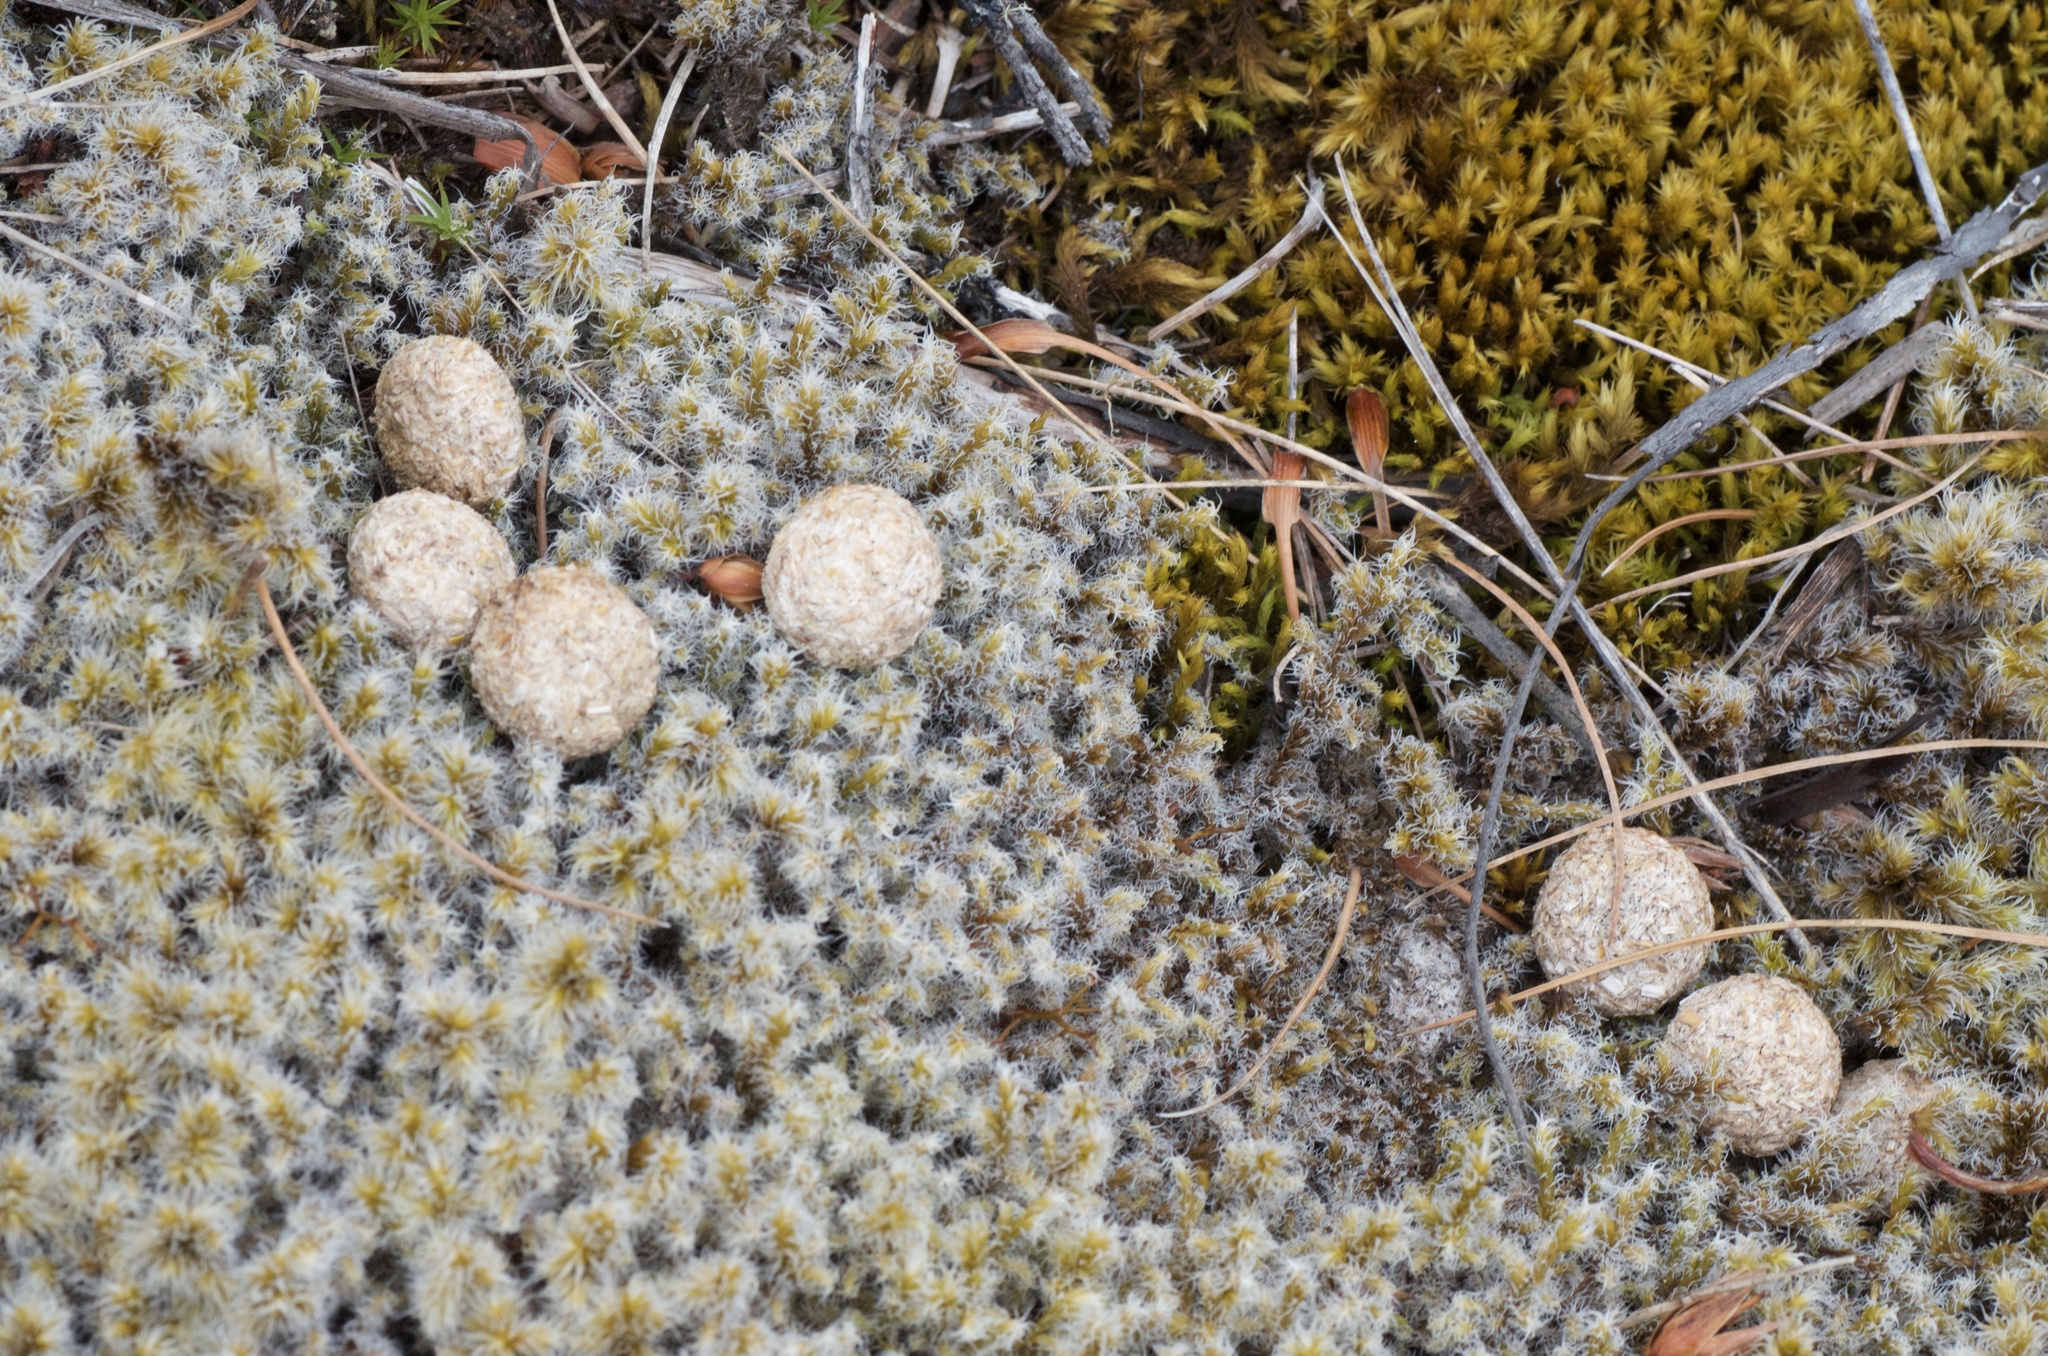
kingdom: Animalia
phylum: Chordata
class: Mammalia
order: Lagomorpha
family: Leporidae
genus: Lepus
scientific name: Lepus europaeus
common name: European hare
